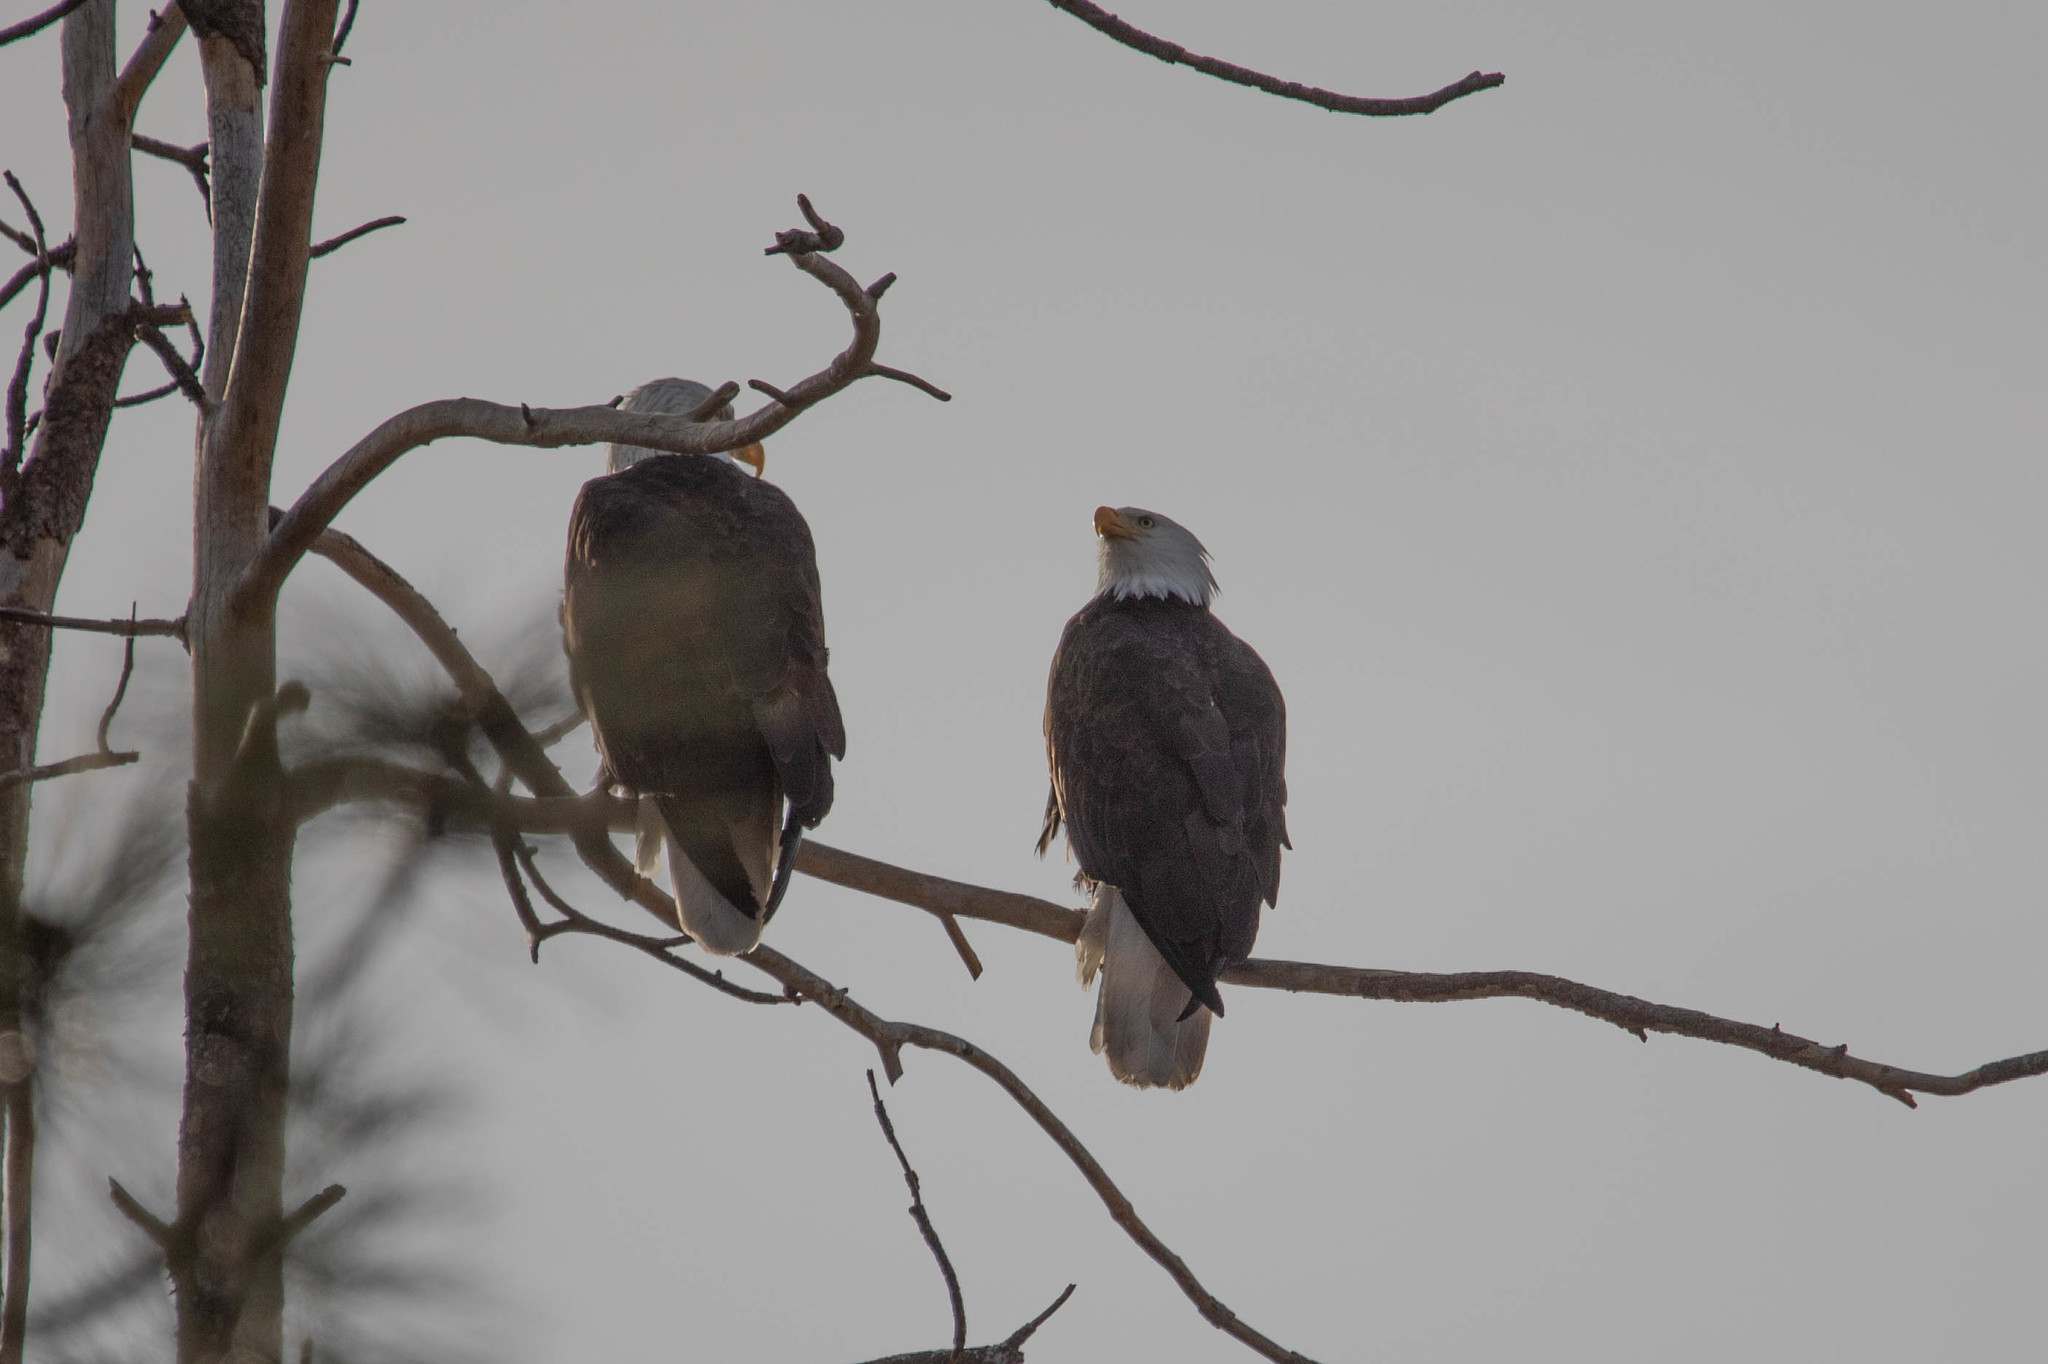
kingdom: Animalia
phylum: Chordata
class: Aves
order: Accipitriformes
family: Accipitridae
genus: Haliaeetus
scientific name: Haliaeetus leucocephalus
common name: Bald eagle
